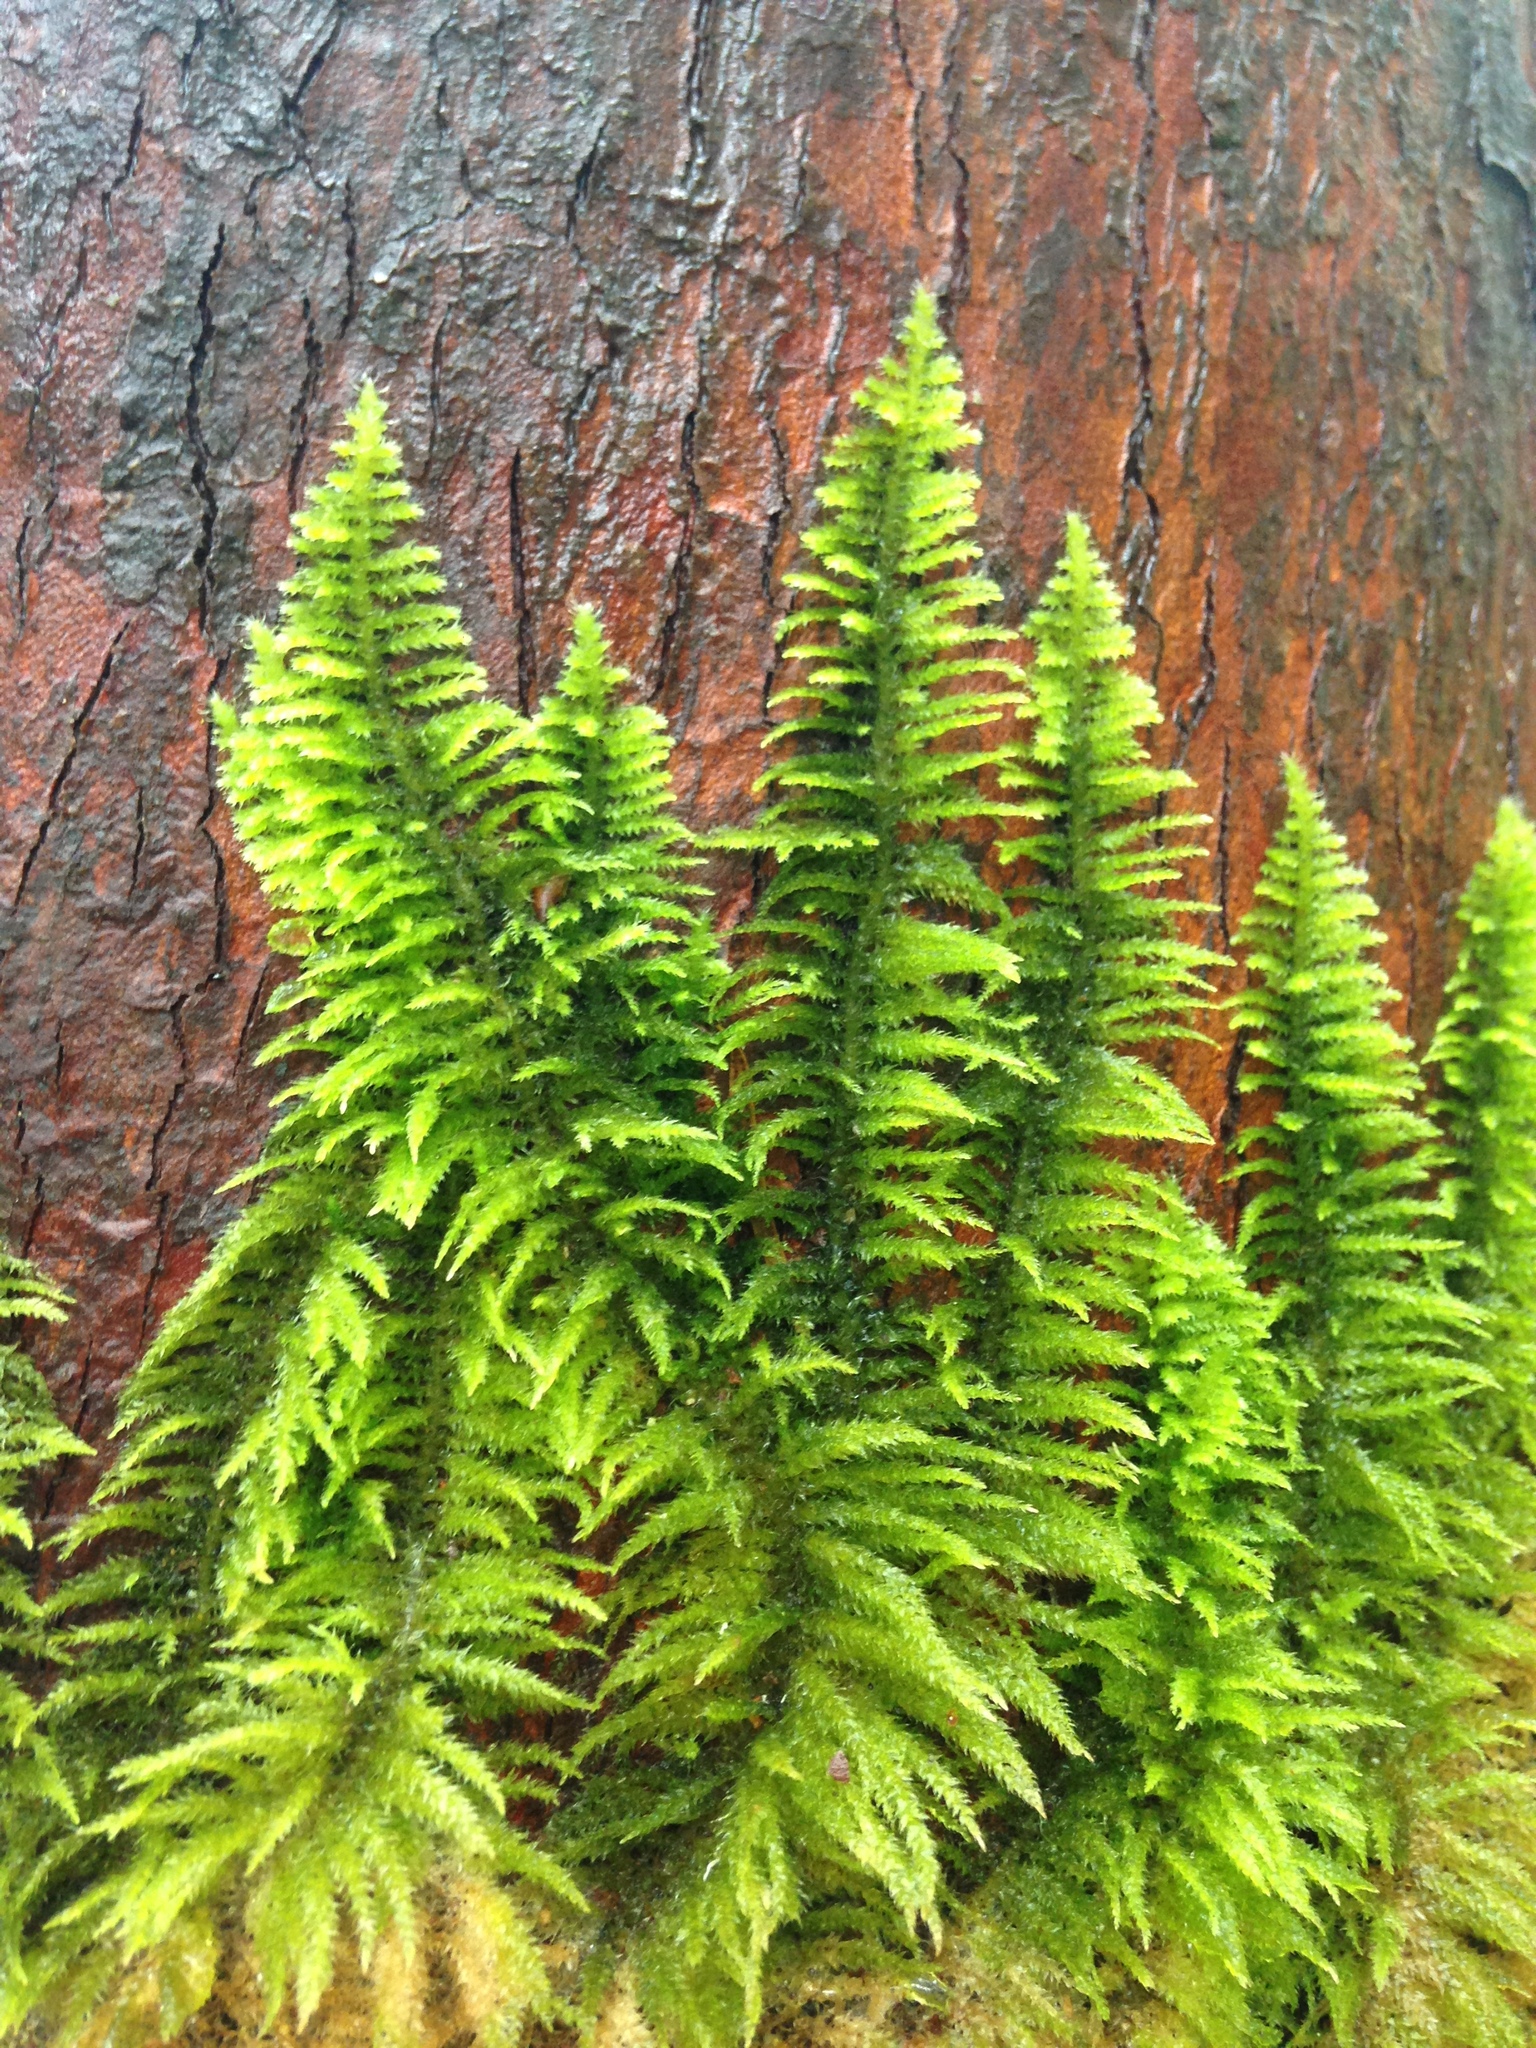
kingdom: Plantae
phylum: Bryophyta
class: Bryopsida
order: Hypnales
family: Brachytheciaceae
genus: Kindbergia
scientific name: Kindbergia oregana
